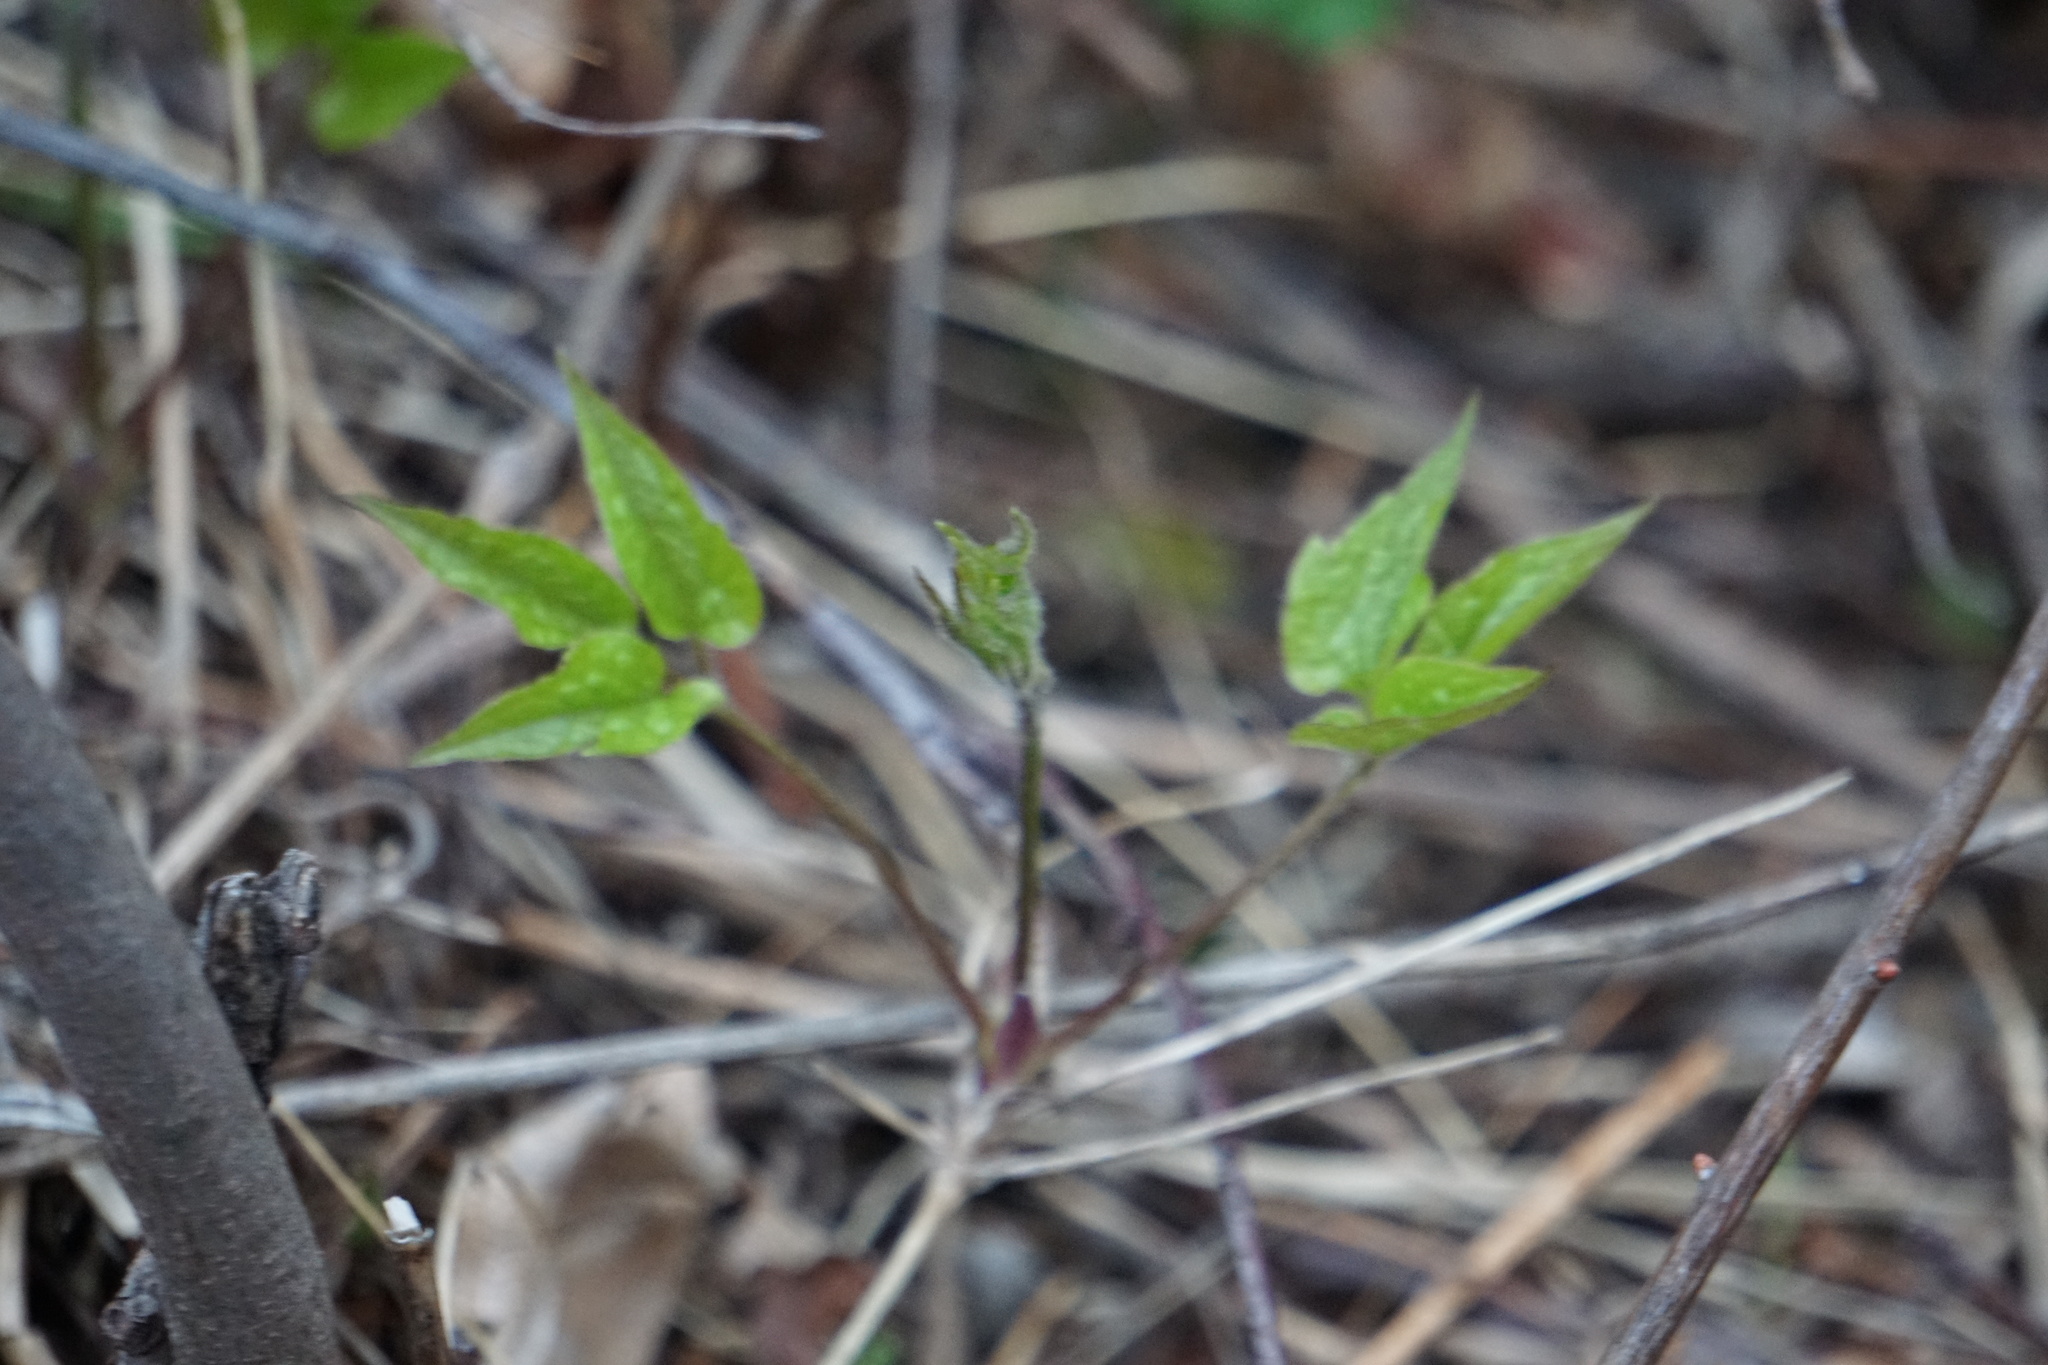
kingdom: Plantae
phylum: Tracheophyta
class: Magnoliopsida
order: Ranunculales
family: Ranunculaceae
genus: Clematis
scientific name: Clematis occidentalis
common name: Purple clematis
